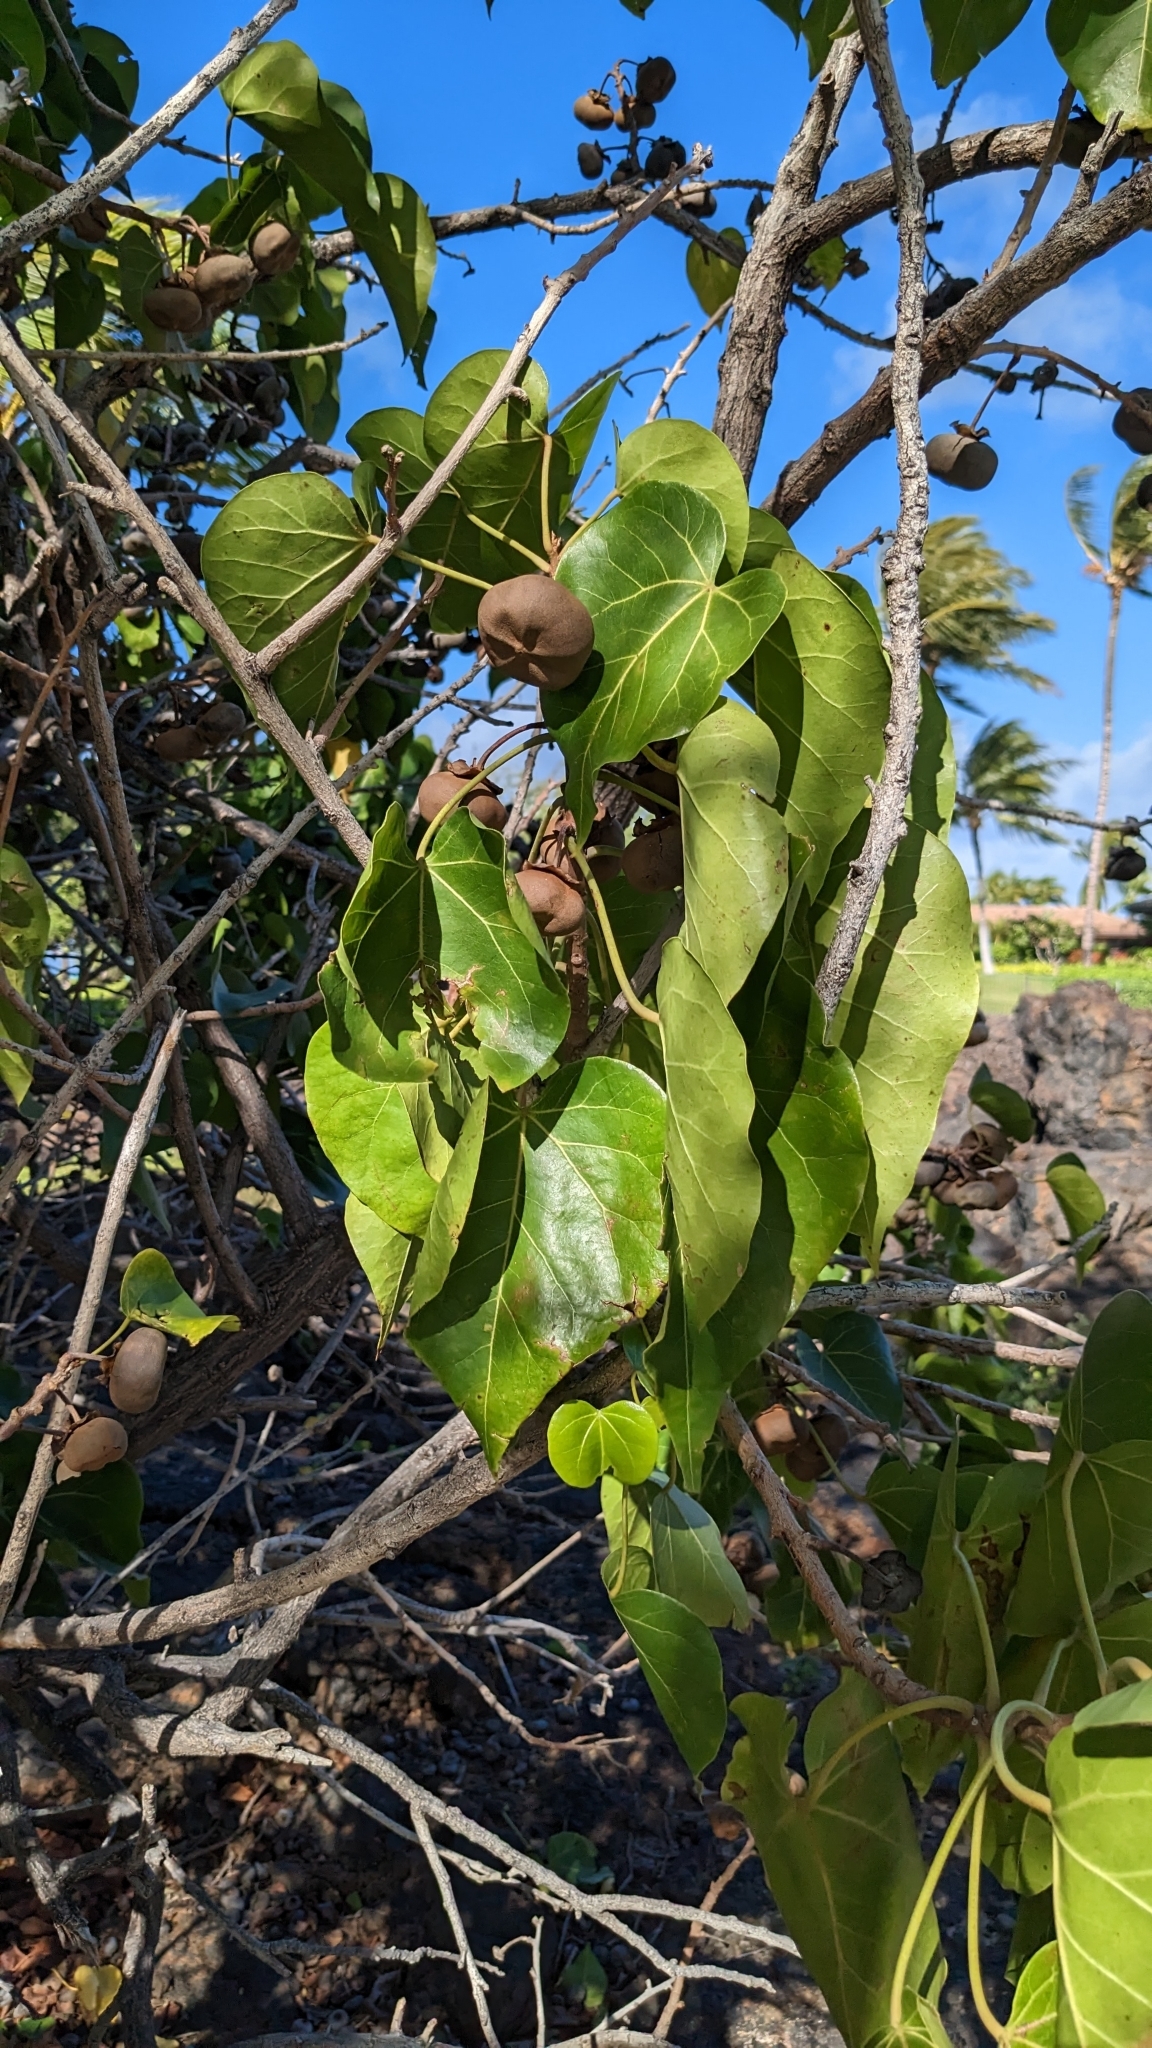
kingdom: Plantae
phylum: Tracheophyta
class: Magnoliopsida
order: Malvales
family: Malvaceae
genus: Thespesia
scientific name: Thespesia populnea
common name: Seaside mahoe
